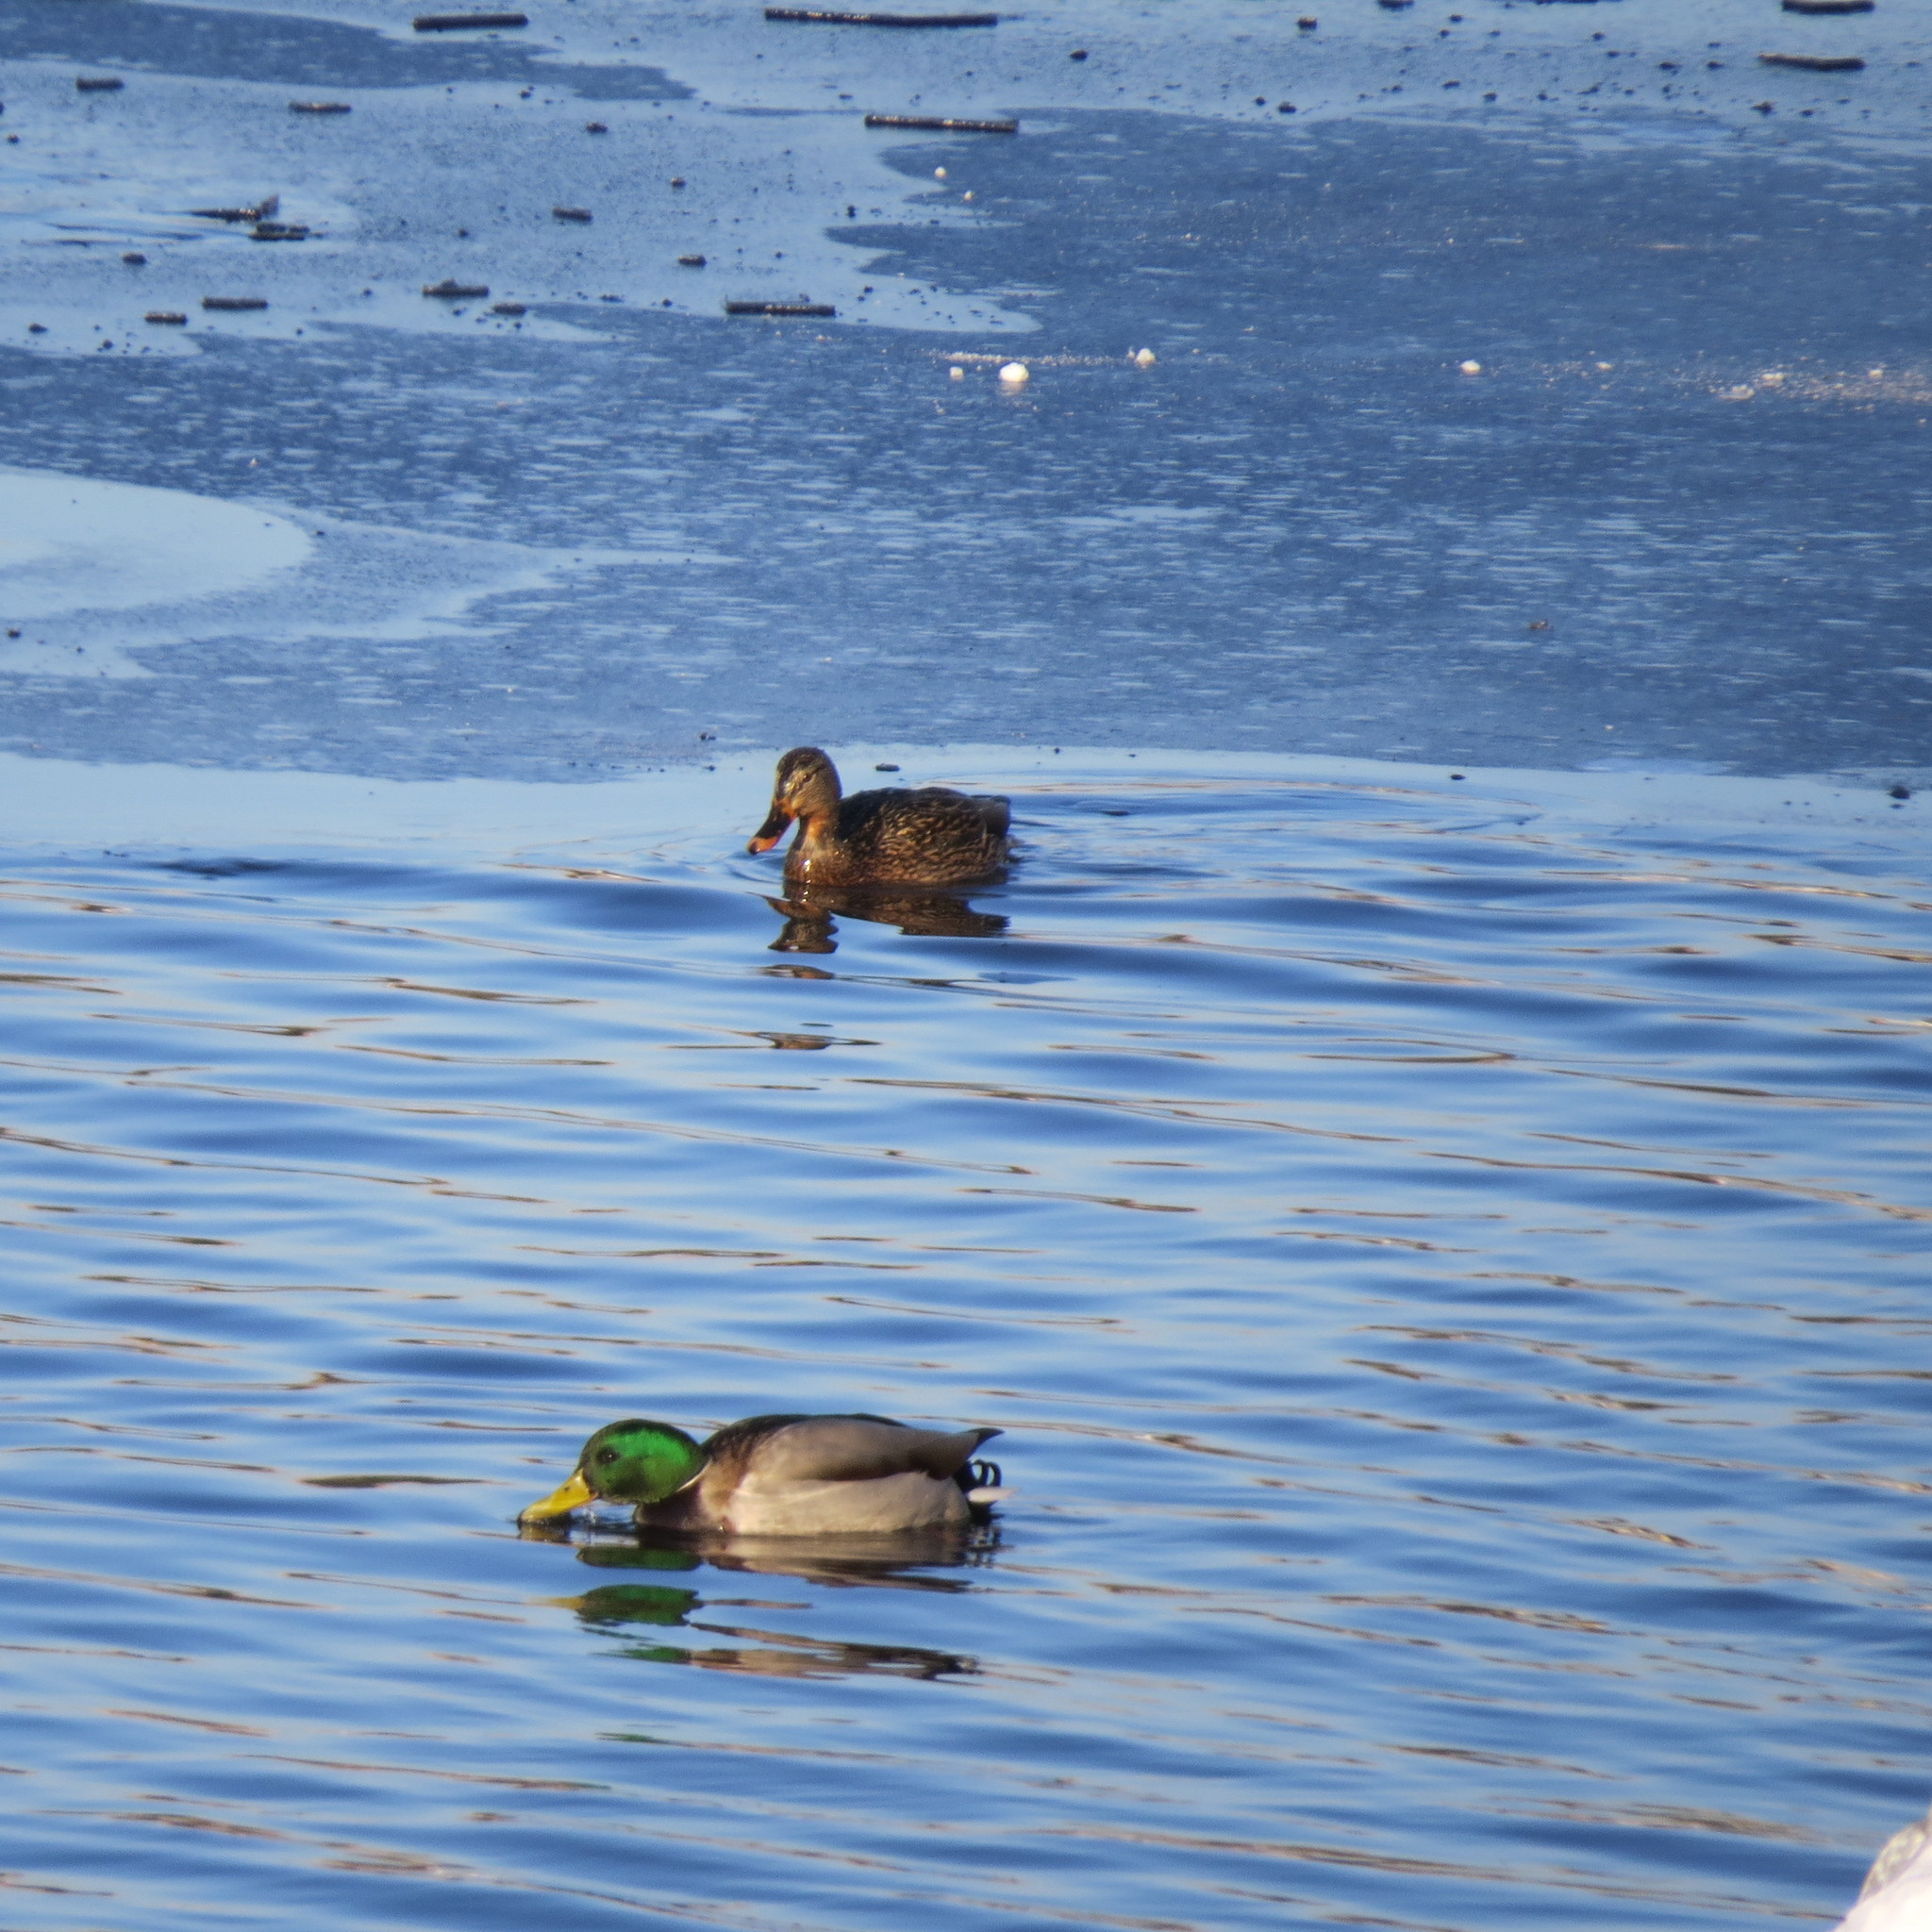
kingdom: Animalia
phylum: Chordata
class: Aves
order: Anseriformes
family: Anatidae
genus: Anas
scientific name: Anas platyrhynchos
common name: Mallard
